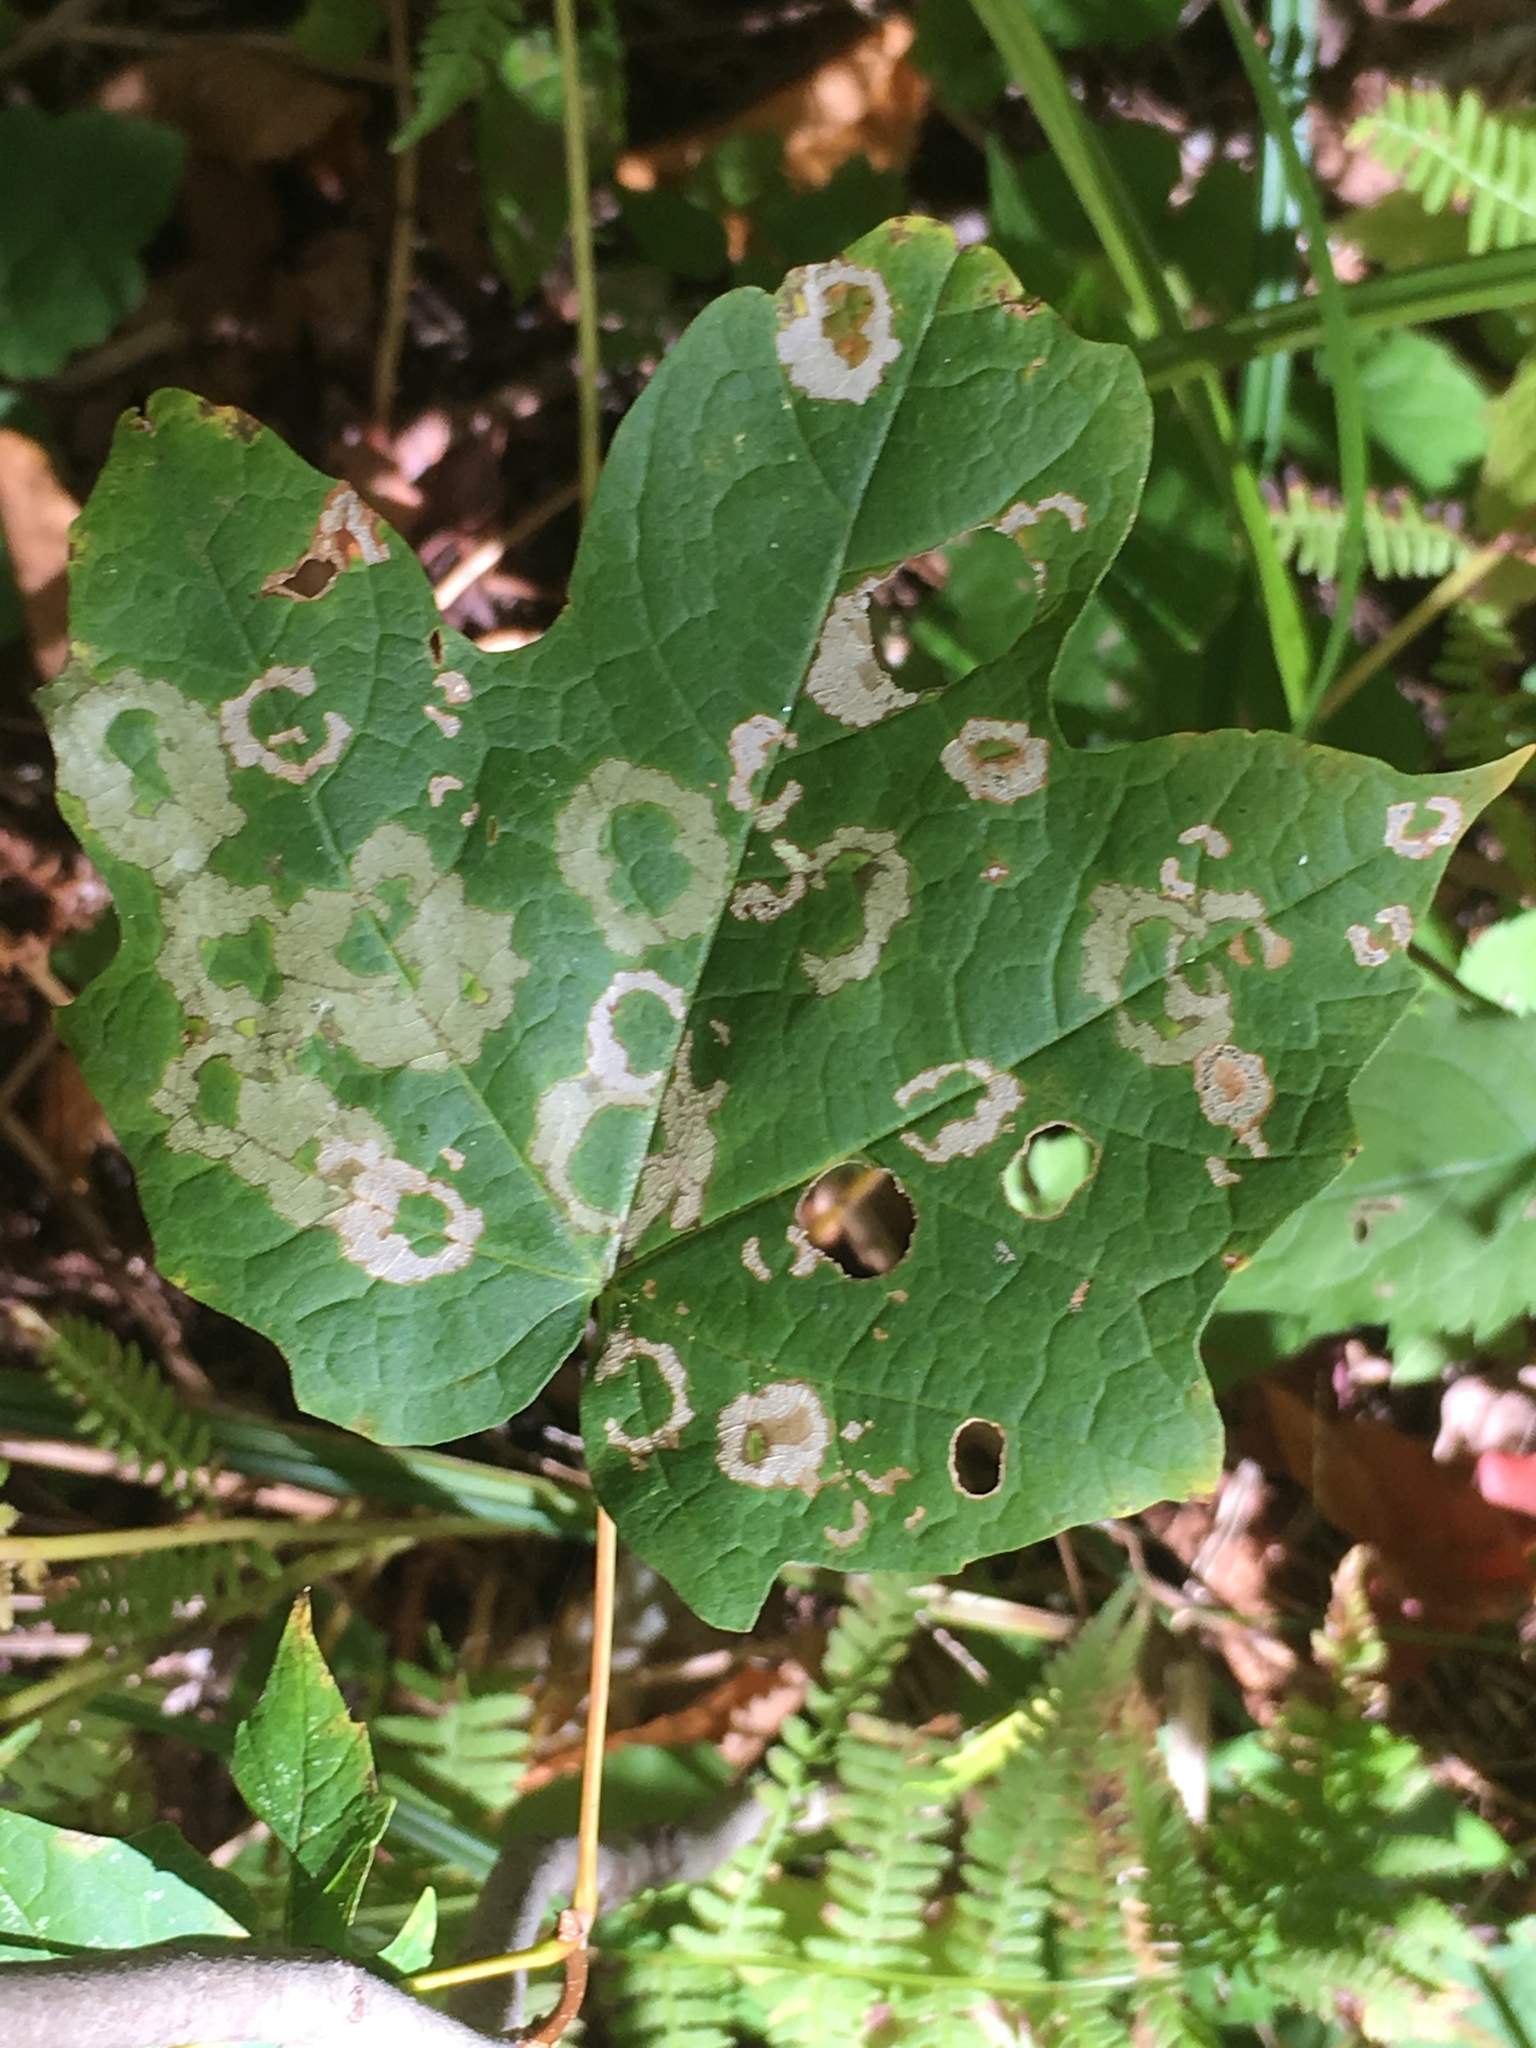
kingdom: Animalia
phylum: Arthropoda
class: Insecta
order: Lepidoptera
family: Incurvariidae
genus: Paraclemensia
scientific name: Paraclemensia acerifoliella
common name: Maple leafcutter
